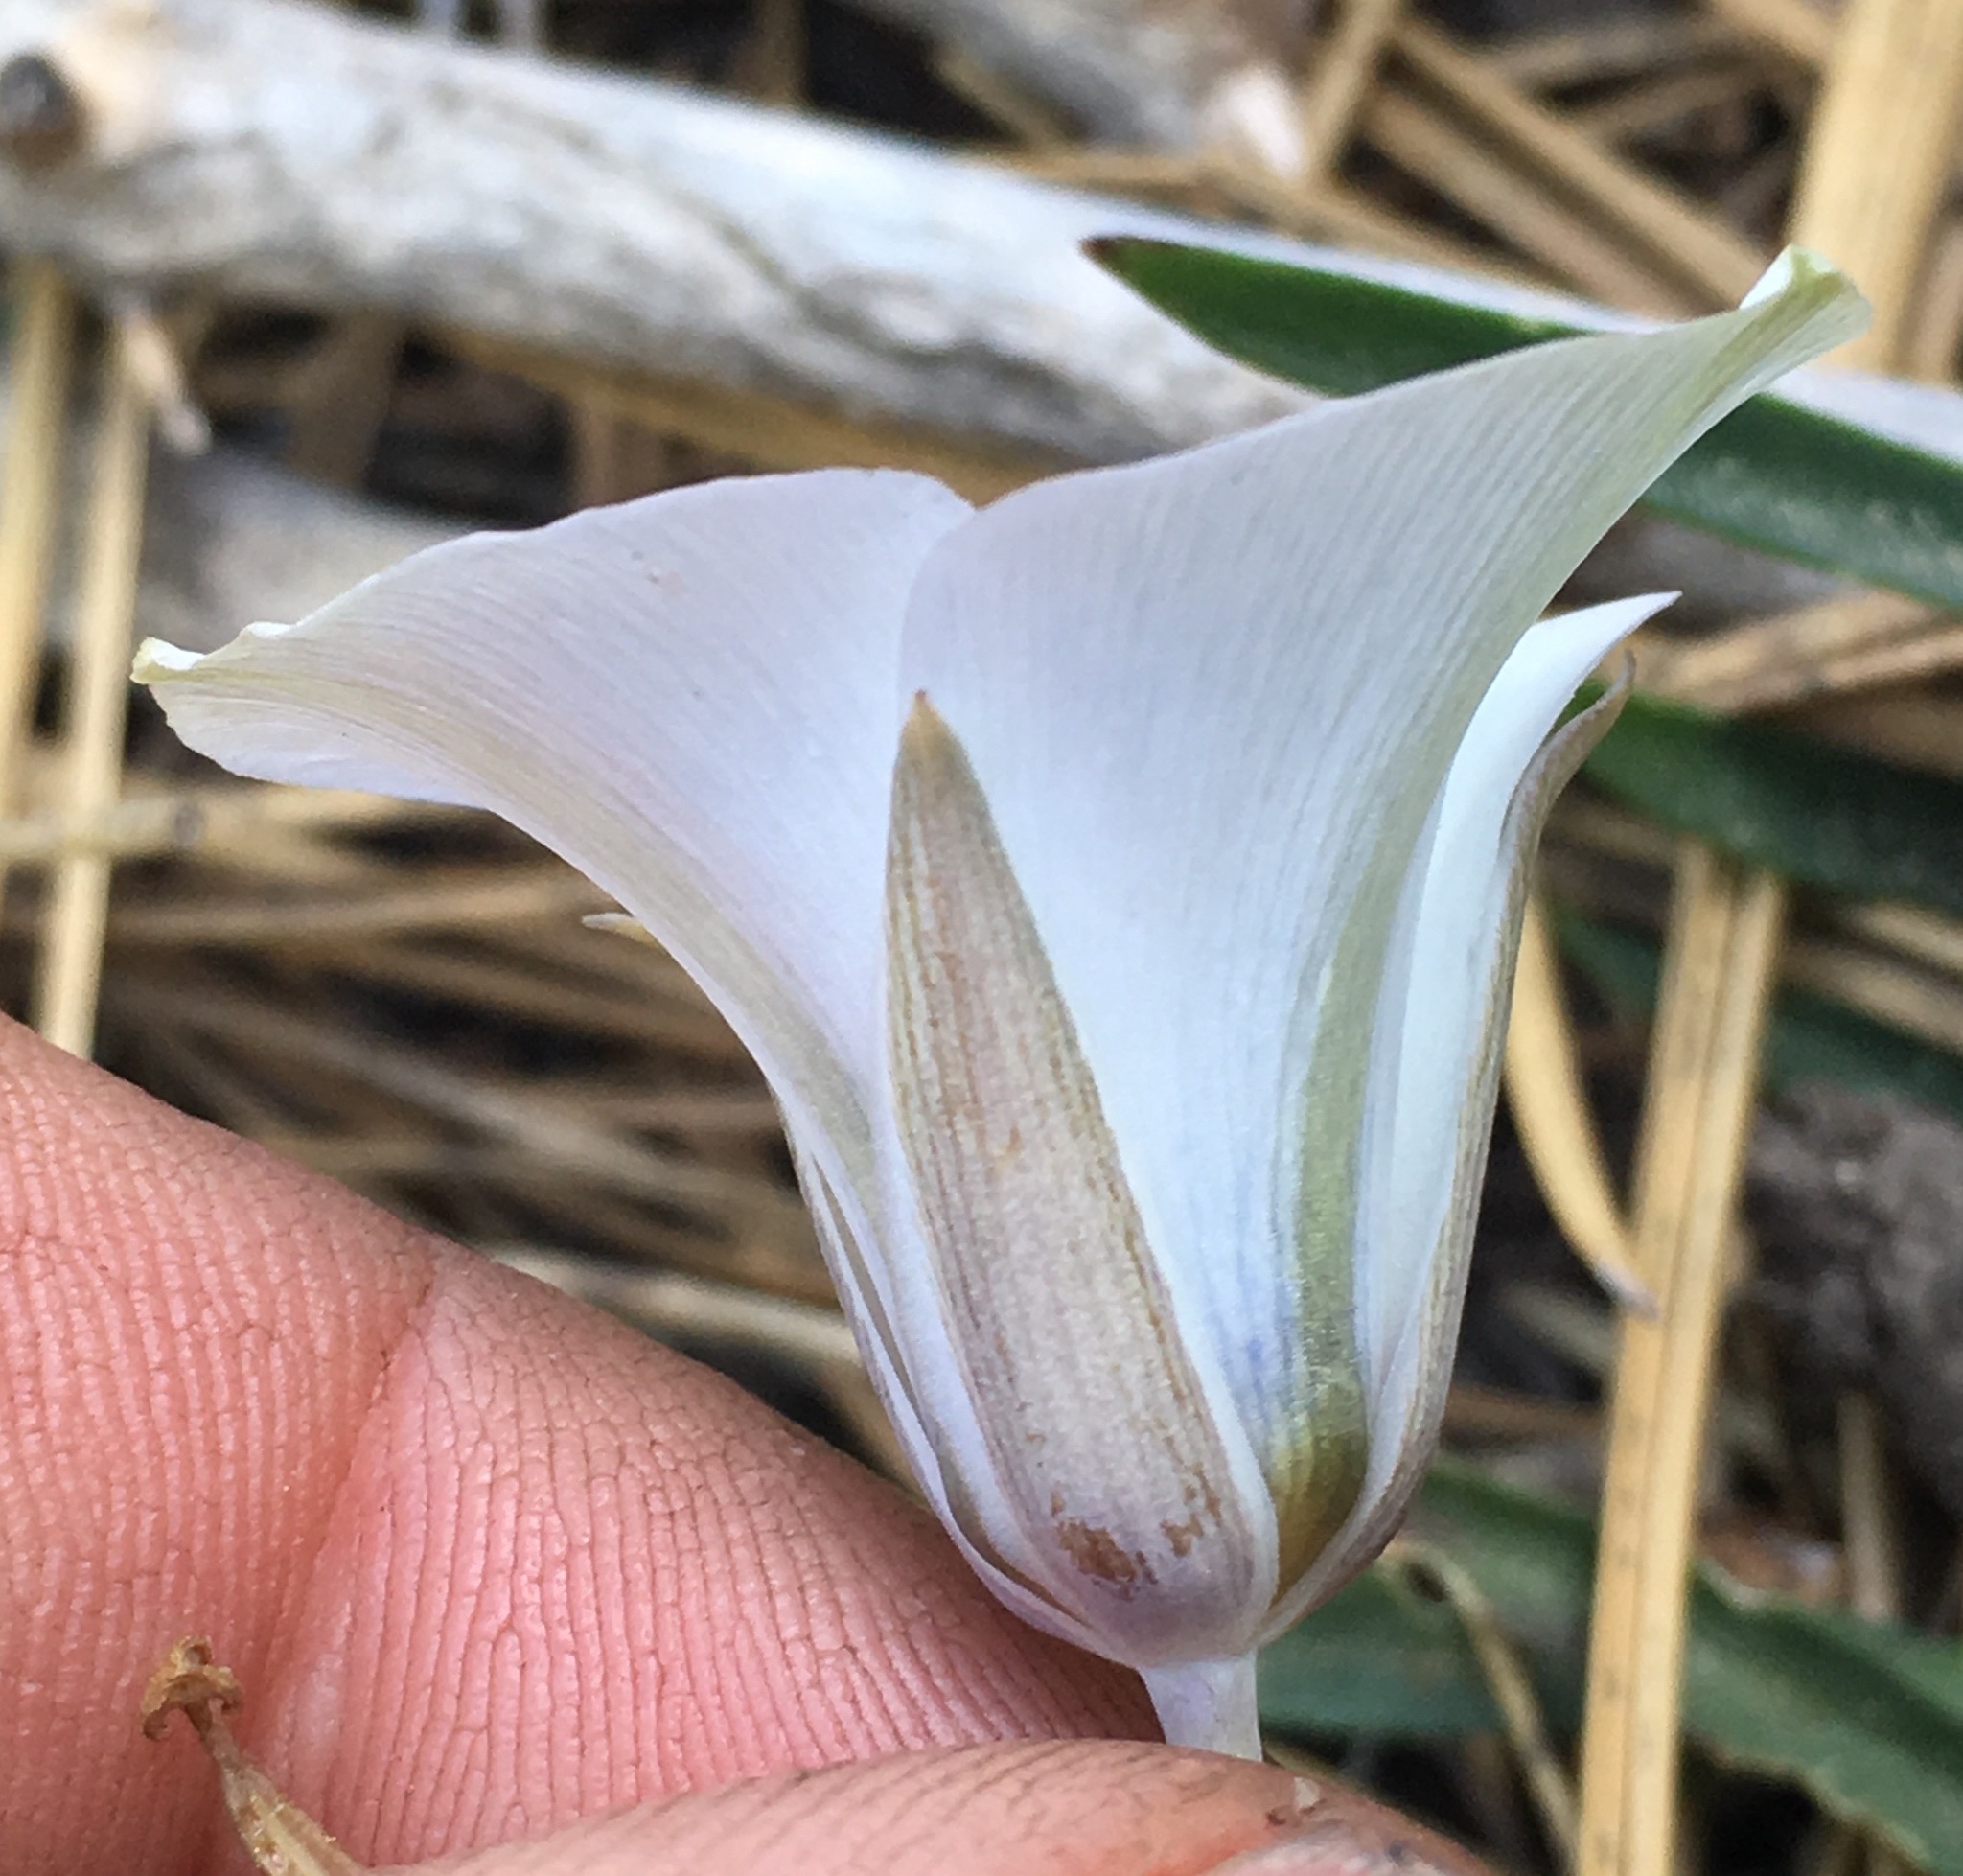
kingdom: Plantae
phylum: Tracheophyta
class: Liliopsida
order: Liliales
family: Liliaceae
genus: Calochortus
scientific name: Calochortus invenustus
